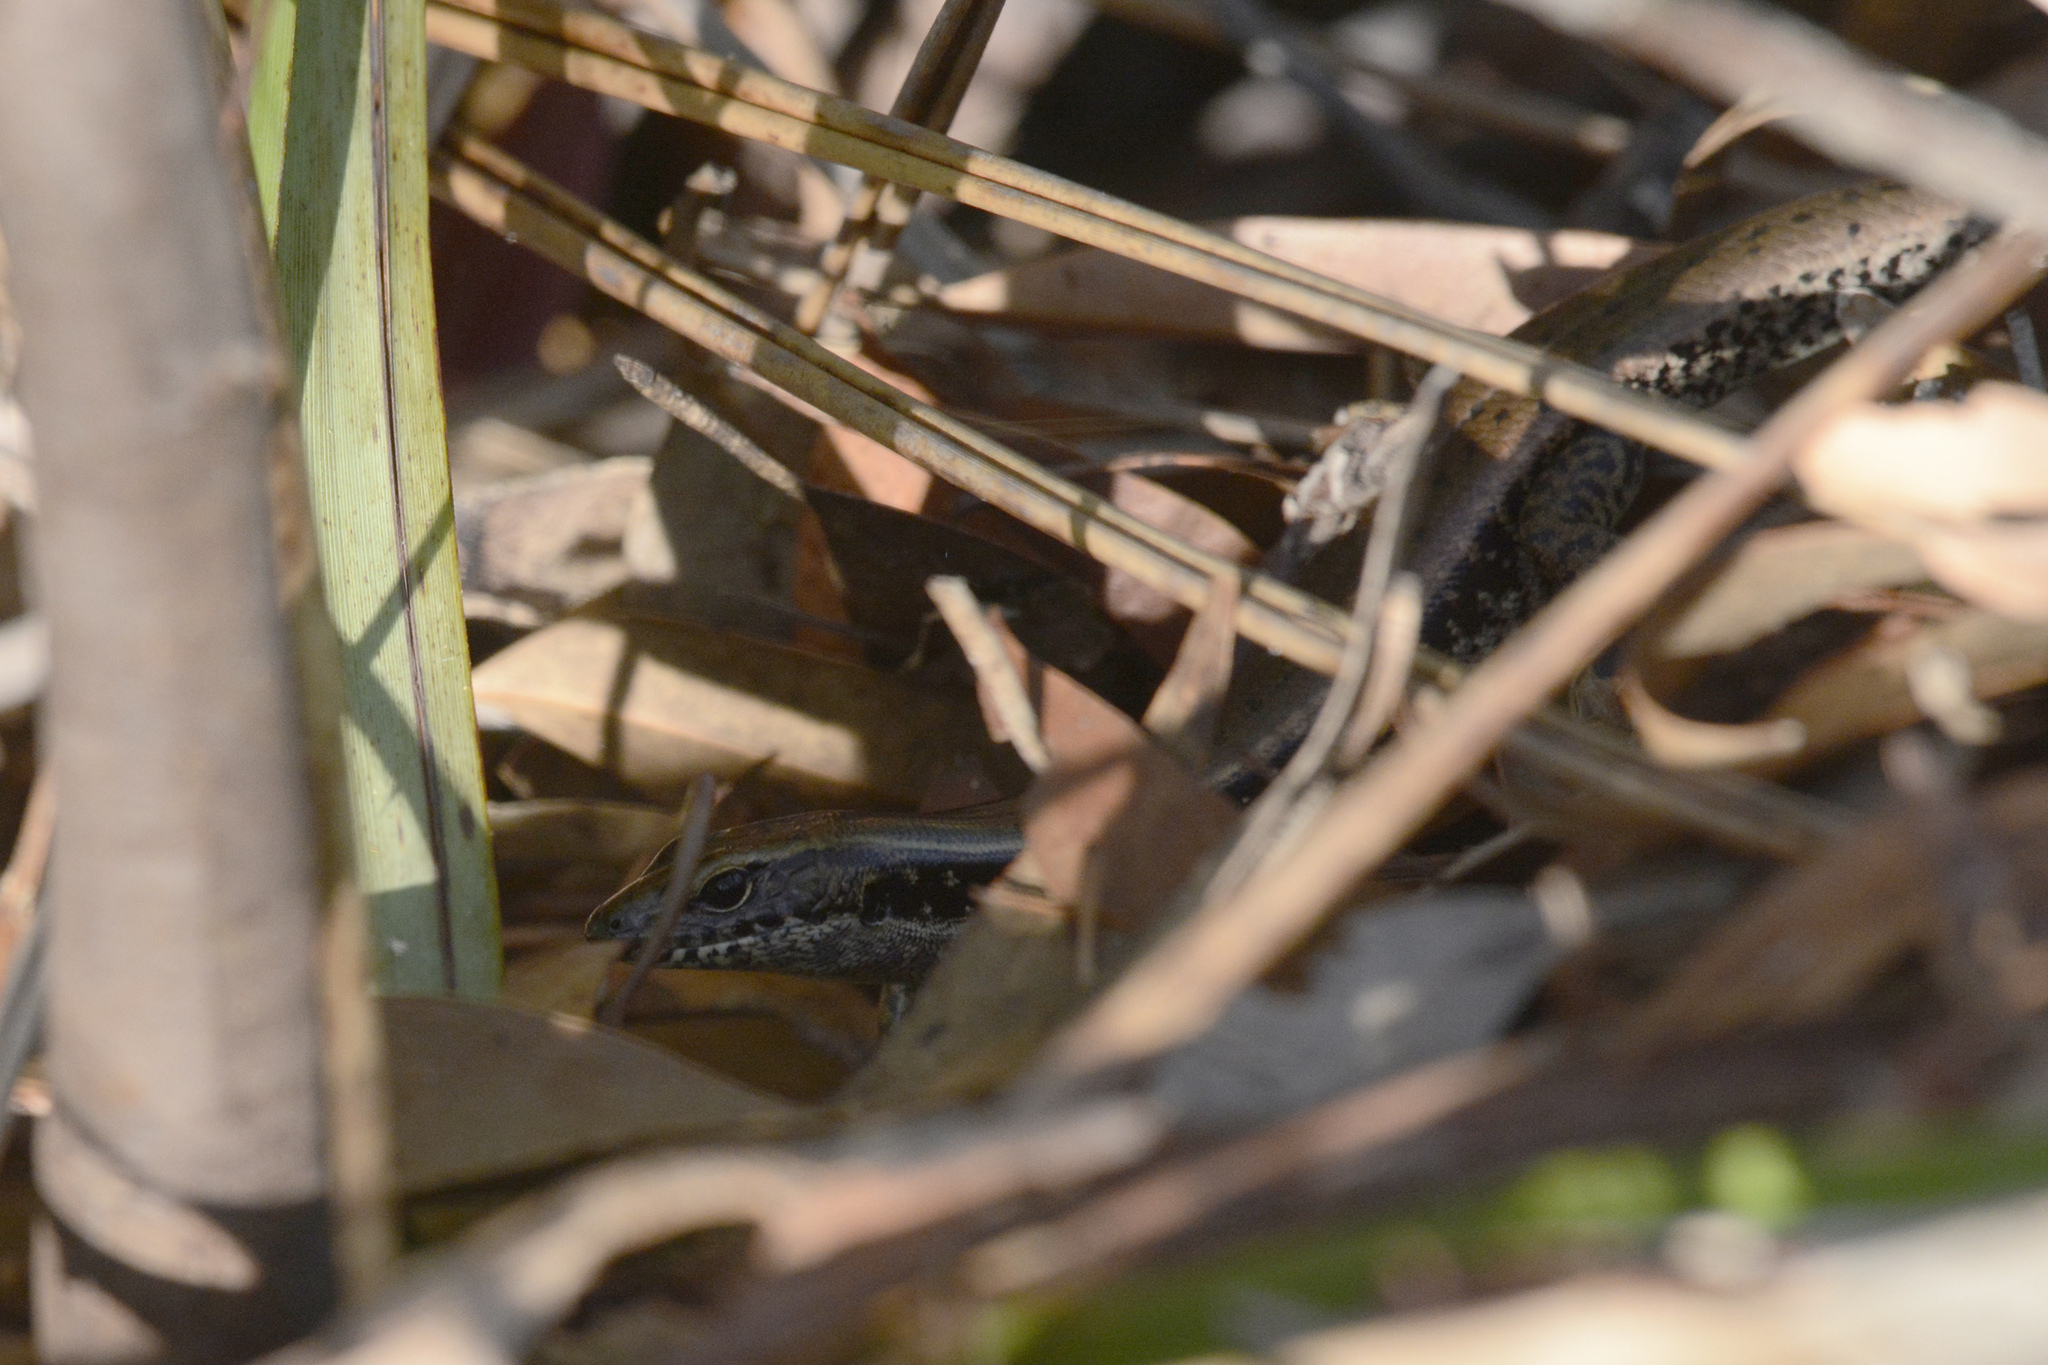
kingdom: Animalia
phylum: Chordata
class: Squamata
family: Scincidae
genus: Eulamprus
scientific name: Eulamprus quoyii
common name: Eastern water skink
